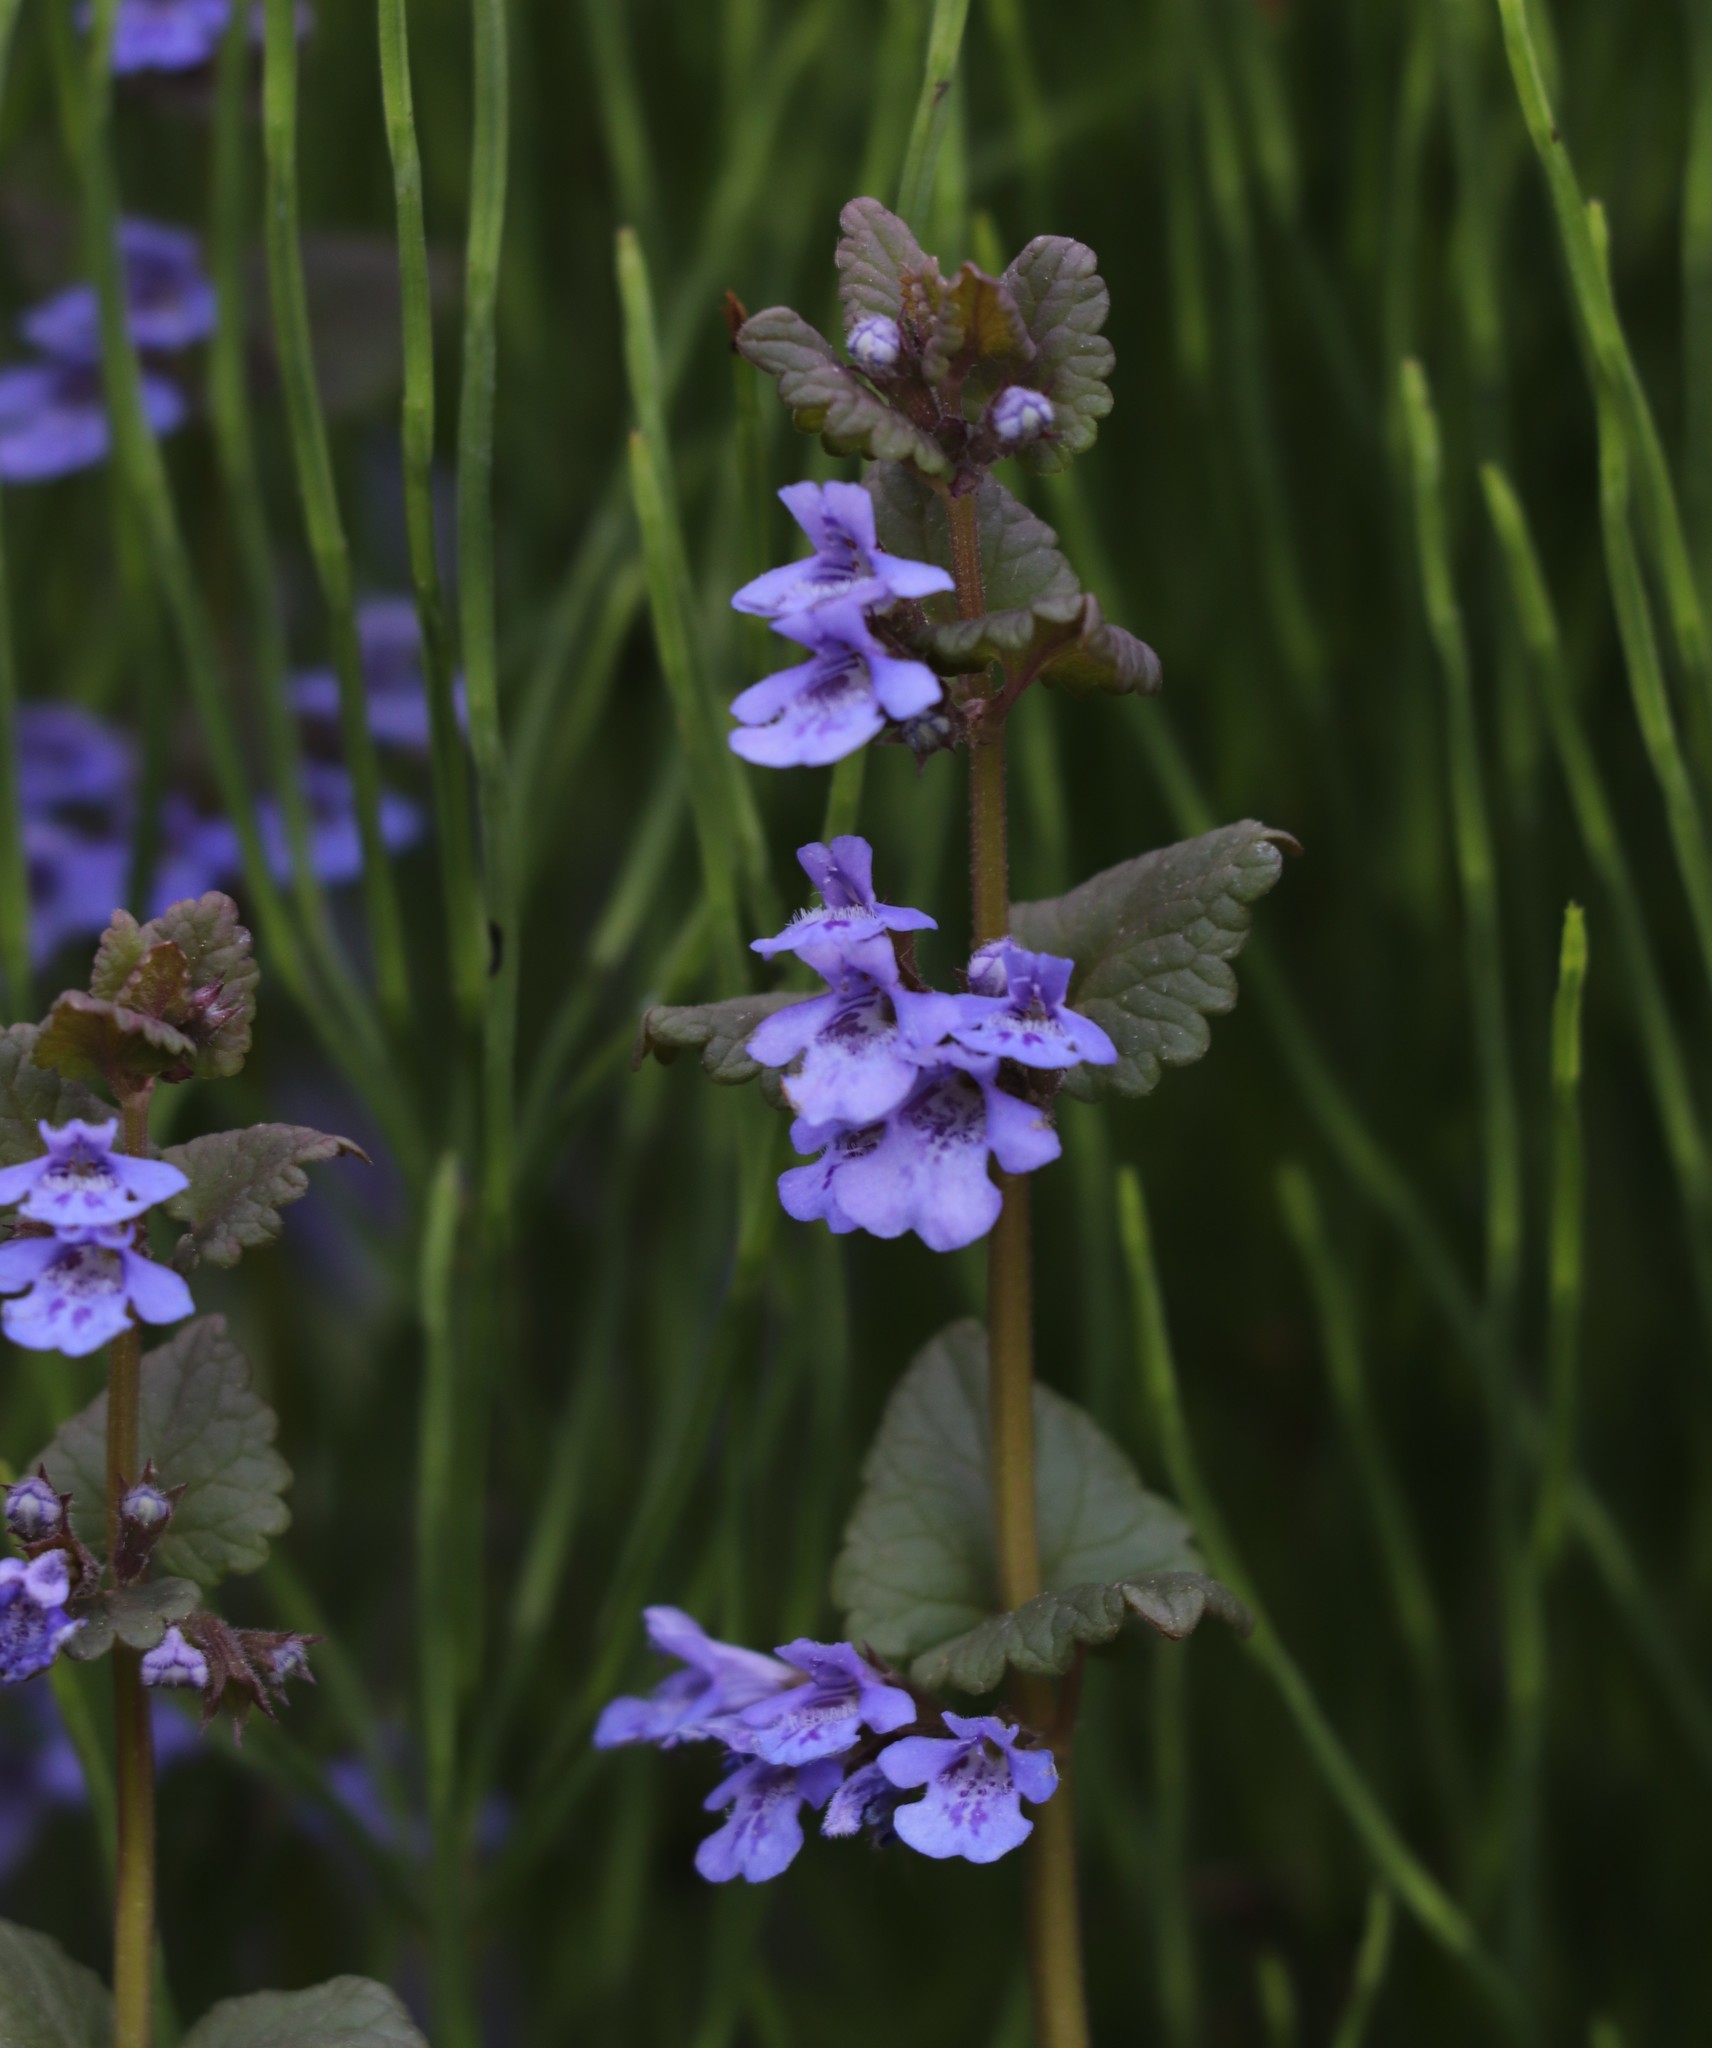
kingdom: Plantae
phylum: Tracheophyta
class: Magnoliopsida
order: Lamiales
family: Lamiaceae
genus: Glechoma
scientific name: Glechoma hederacea
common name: Ground ivy
